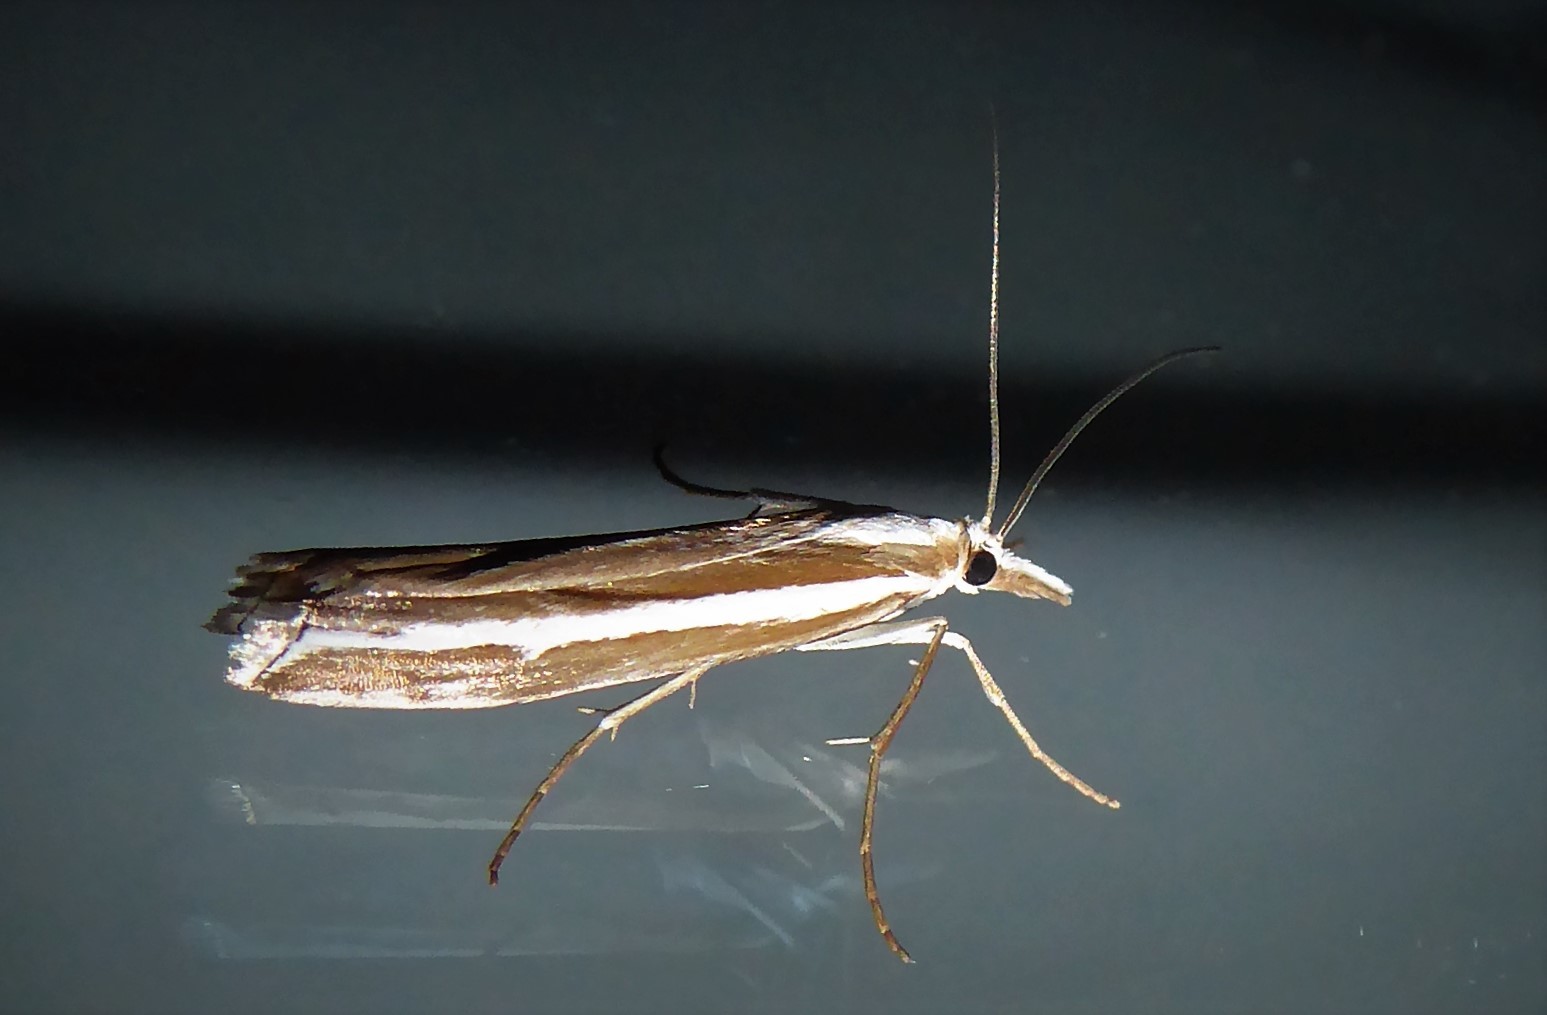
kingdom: Animalia
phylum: Arthropoda
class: Insecta
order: Lepidoptera
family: Crambidae
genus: Orocrambus
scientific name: Orocrambus vittellus
